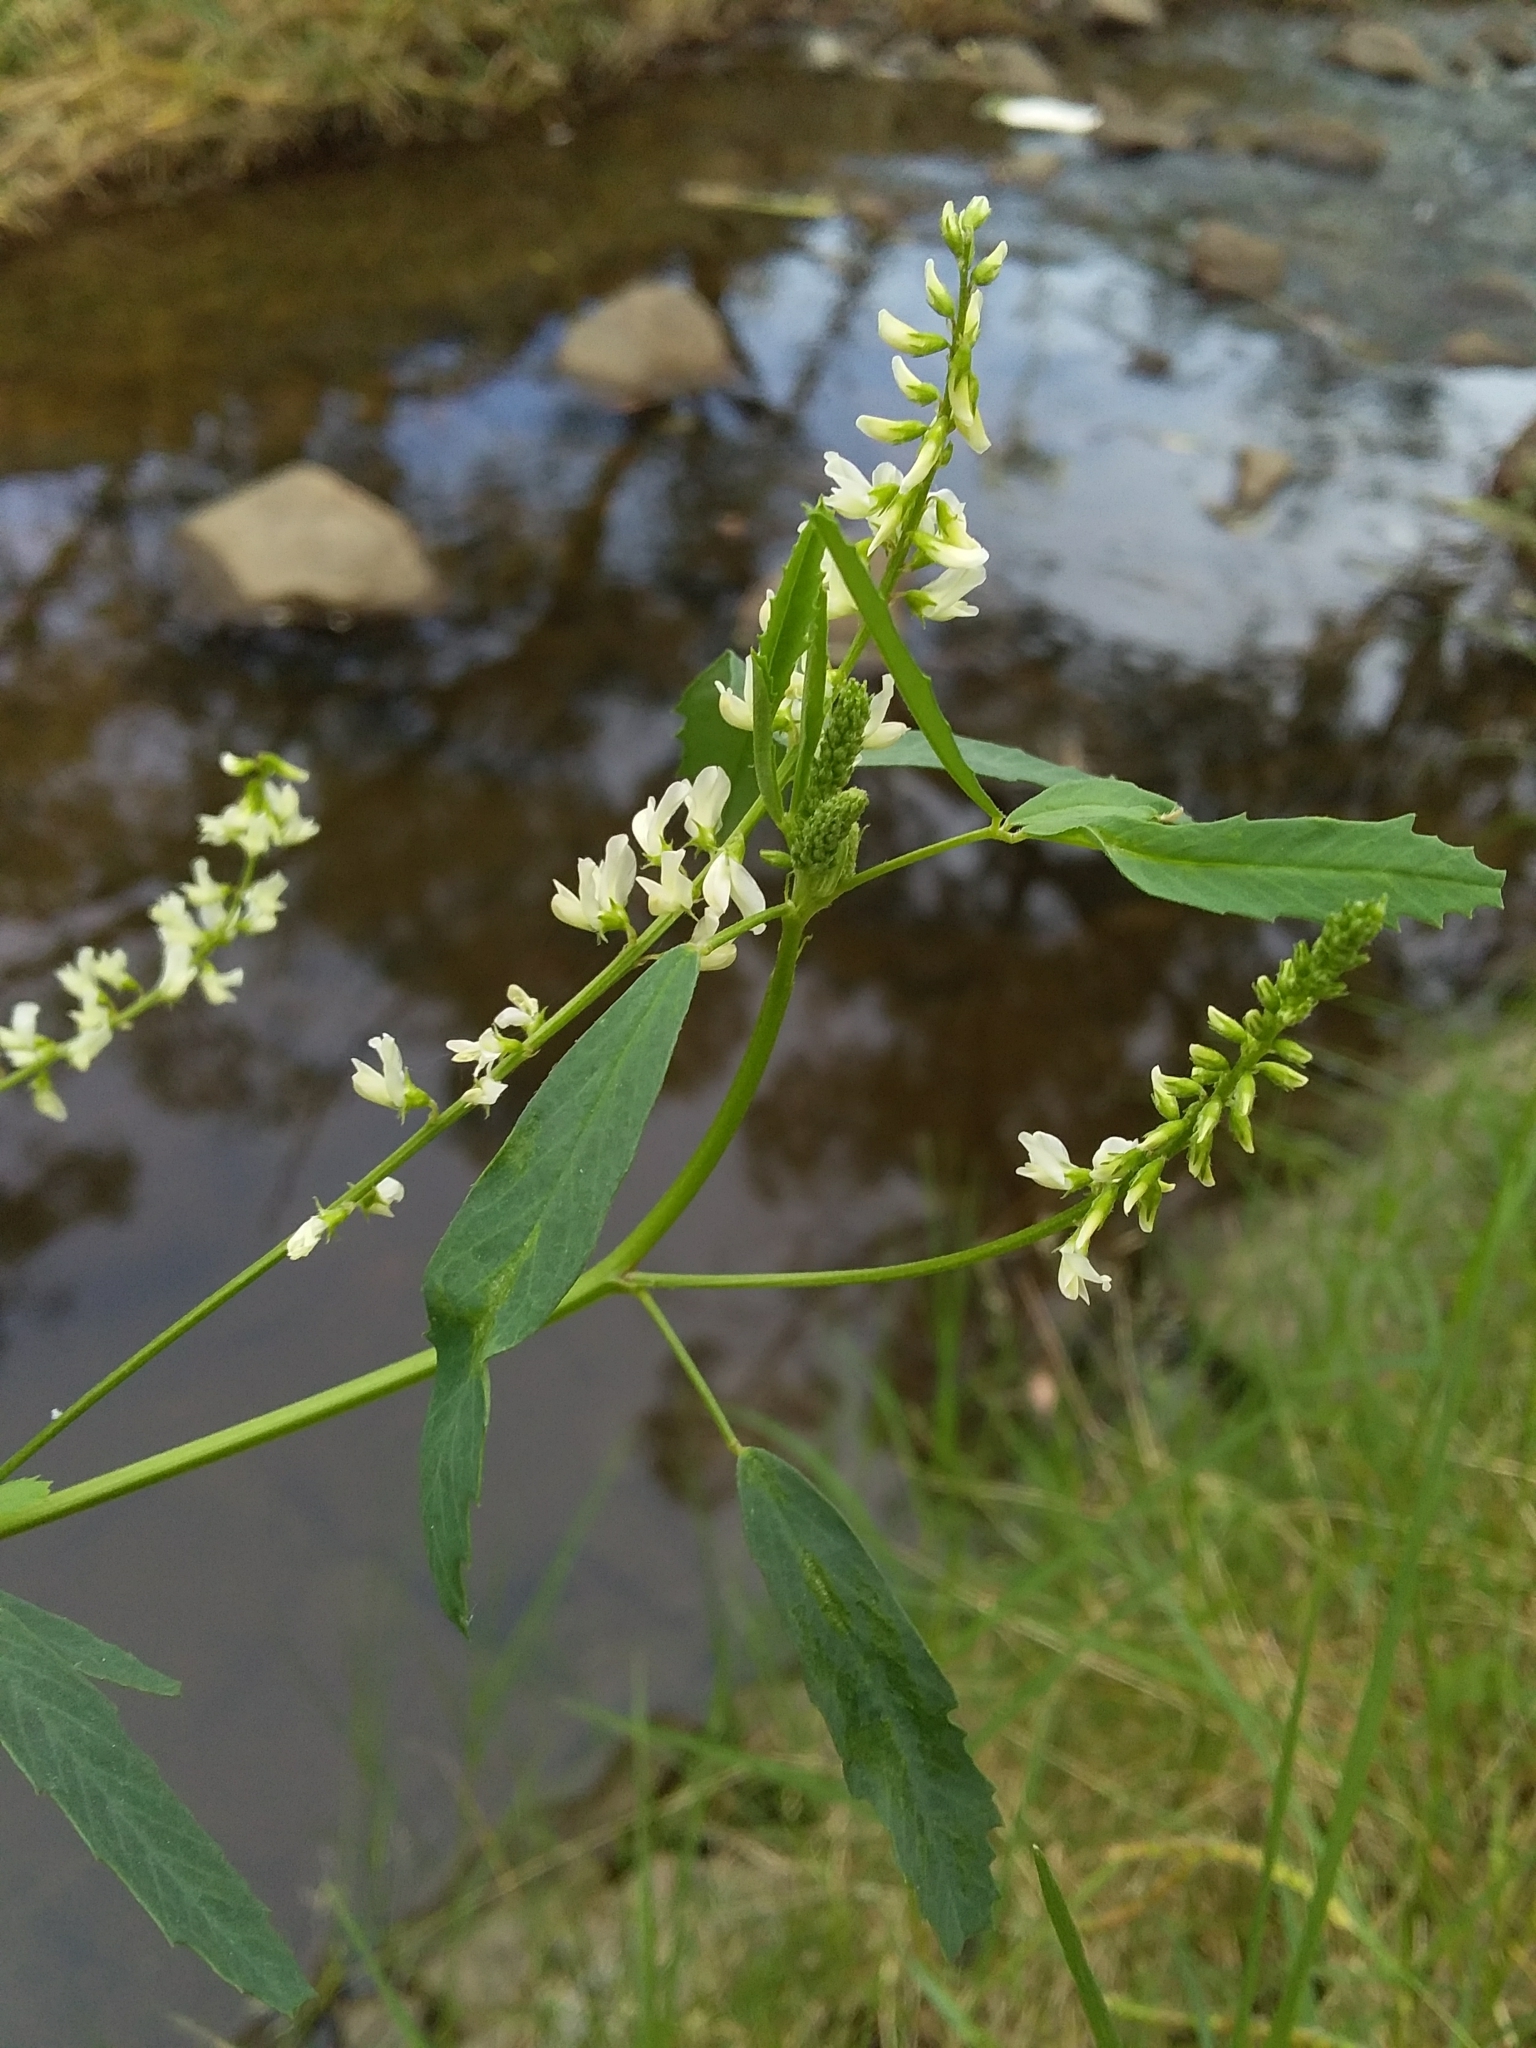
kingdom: Plantae
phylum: Tracheophyta
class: Magnoliopsida
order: Fabales
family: Fabaceae
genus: Melilotus
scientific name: Melilotus albus
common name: White melilot
